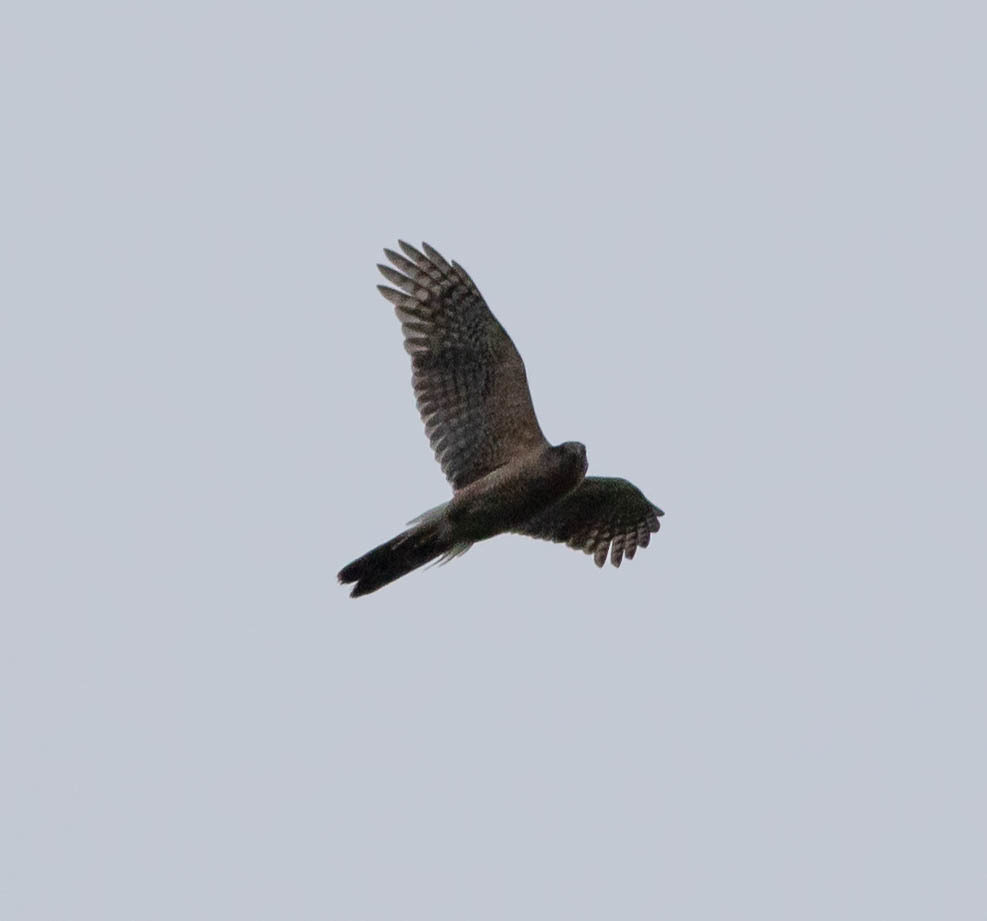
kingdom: Animalia
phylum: Chordata
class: Aves
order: Accipitriformes
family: Accipitridae
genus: Accipiter
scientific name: Accipiter cooperii
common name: Cooper's hawk
